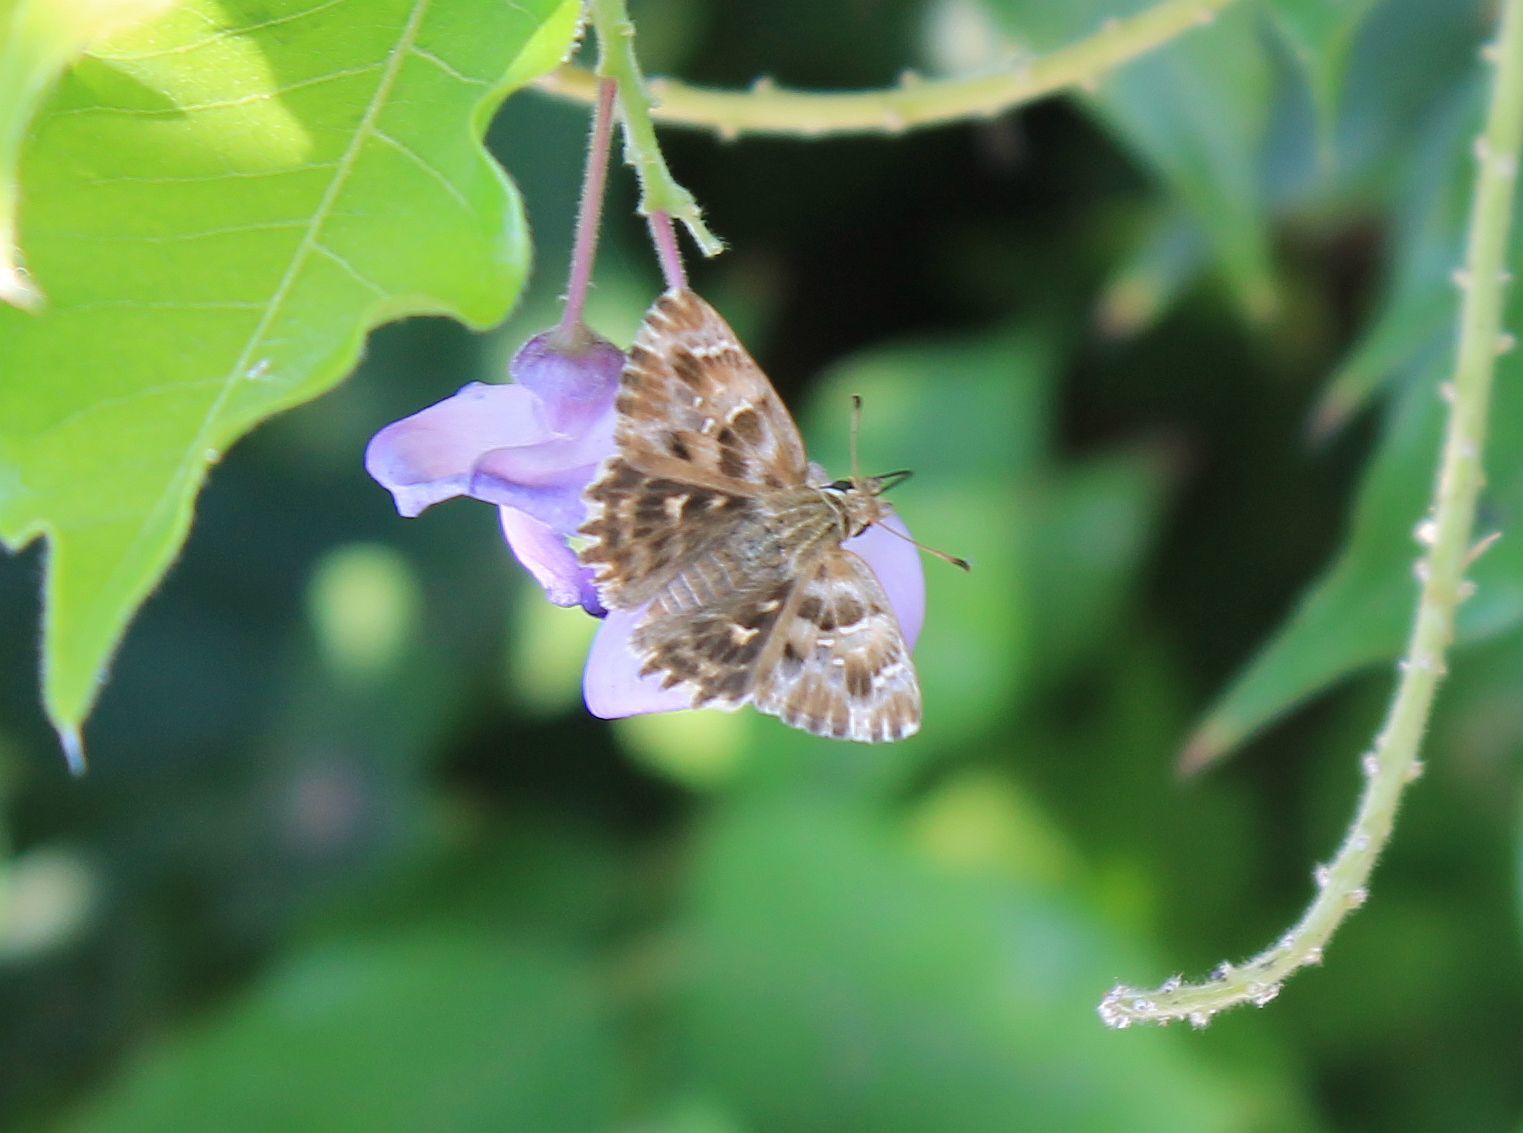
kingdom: Animalia
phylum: Arthropoda
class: Insecta
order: Lepidoptera
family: Hesperiidae
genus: Carcharodus
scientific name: Carcharodus alceae
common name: Mallow skipper
